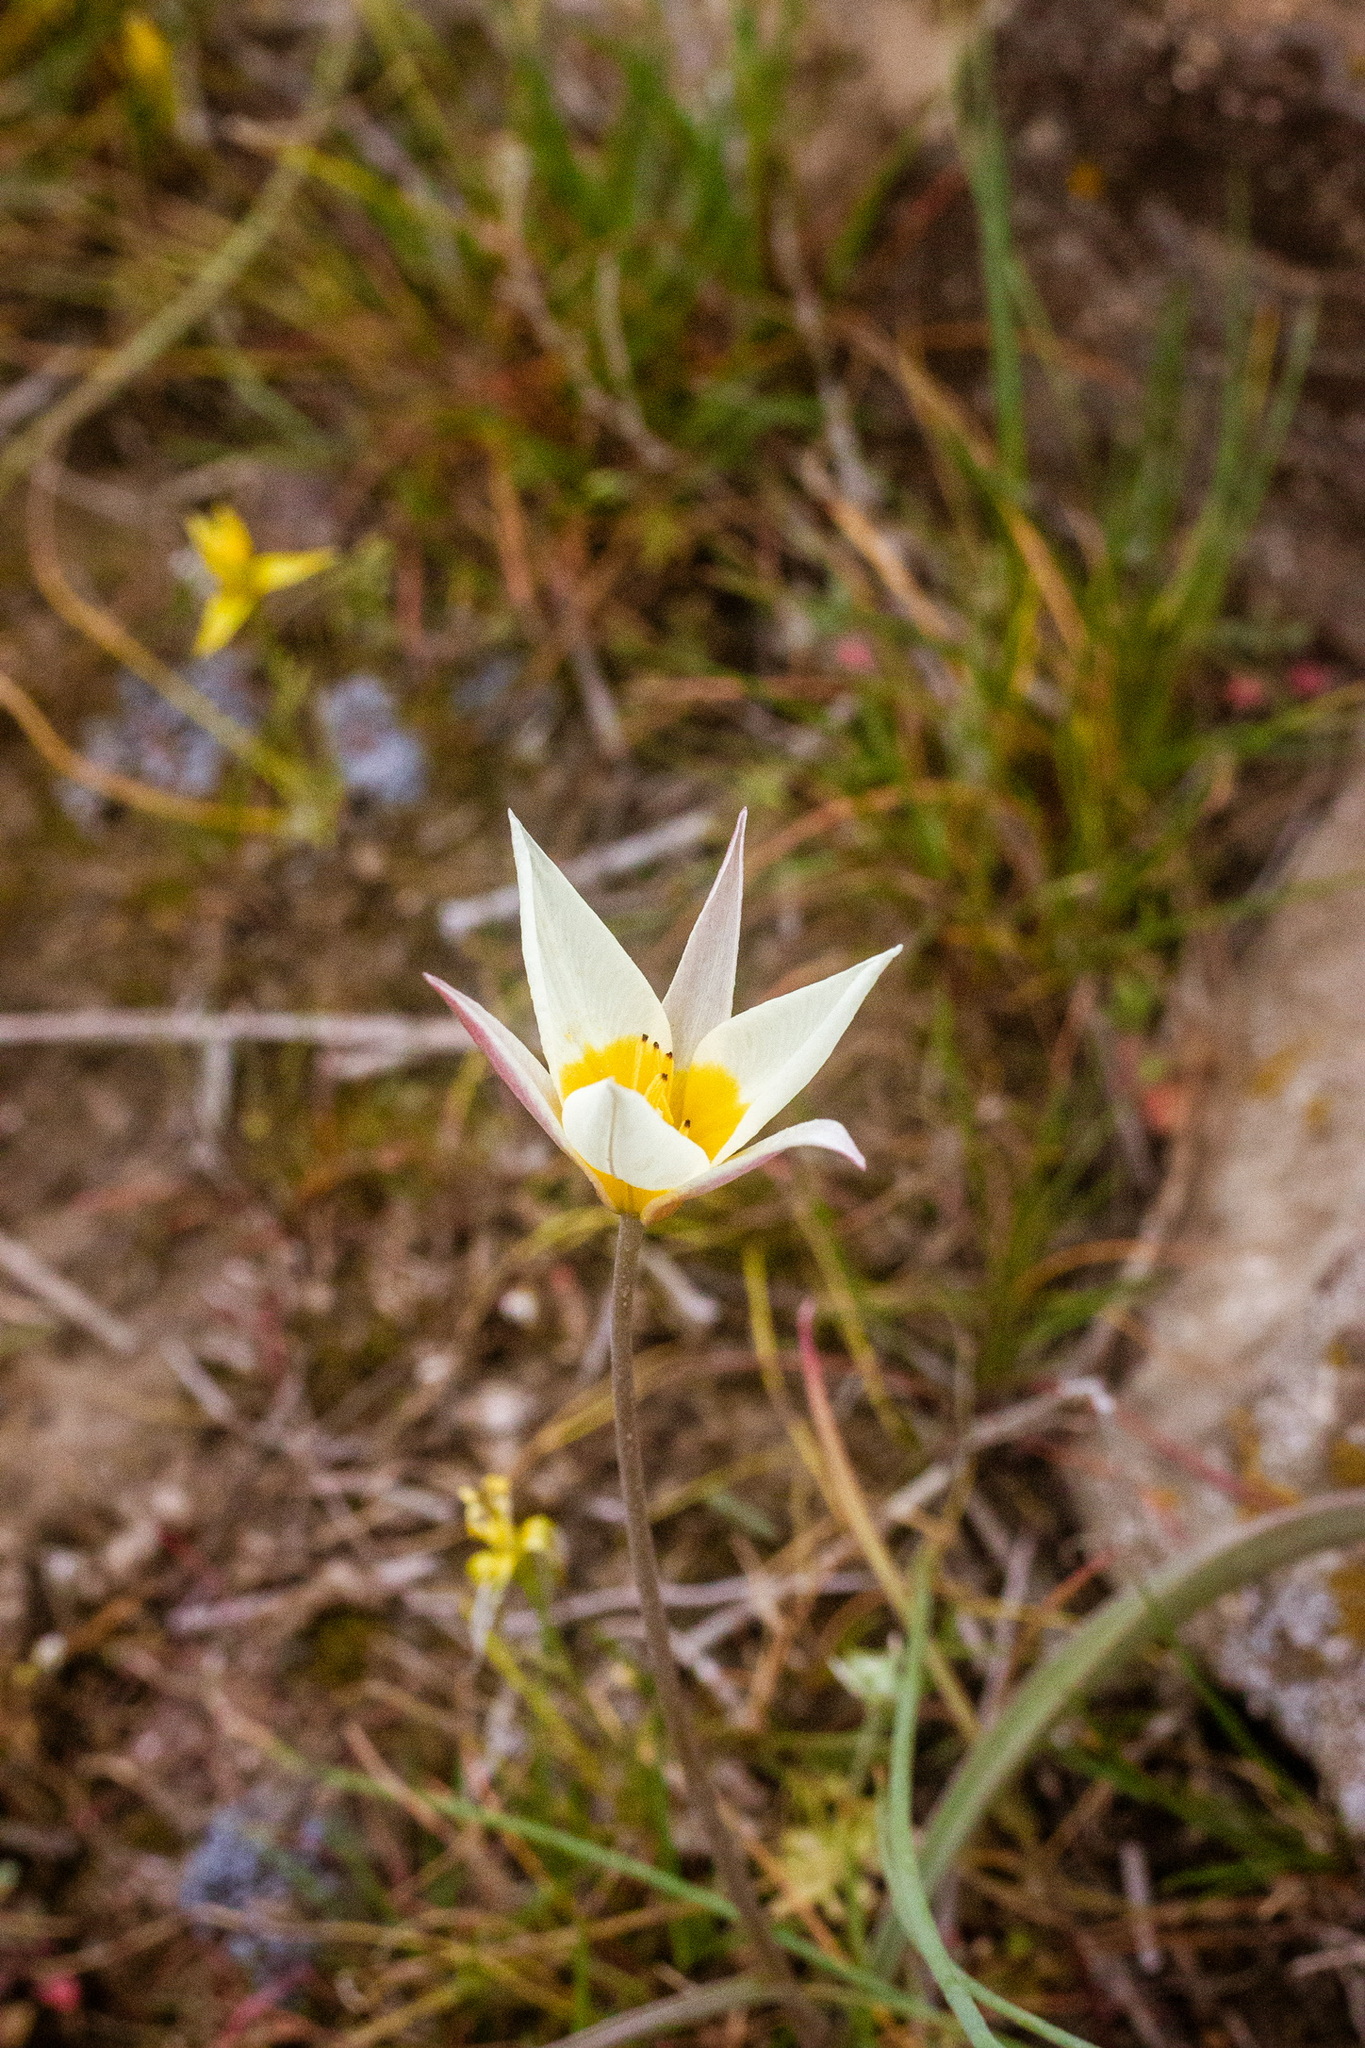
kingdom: Plantae
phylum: Tracheophyta
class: Liliopsida
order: Liliales
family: Liliaceae
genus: Tulipa
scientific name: Tulipa biflora
